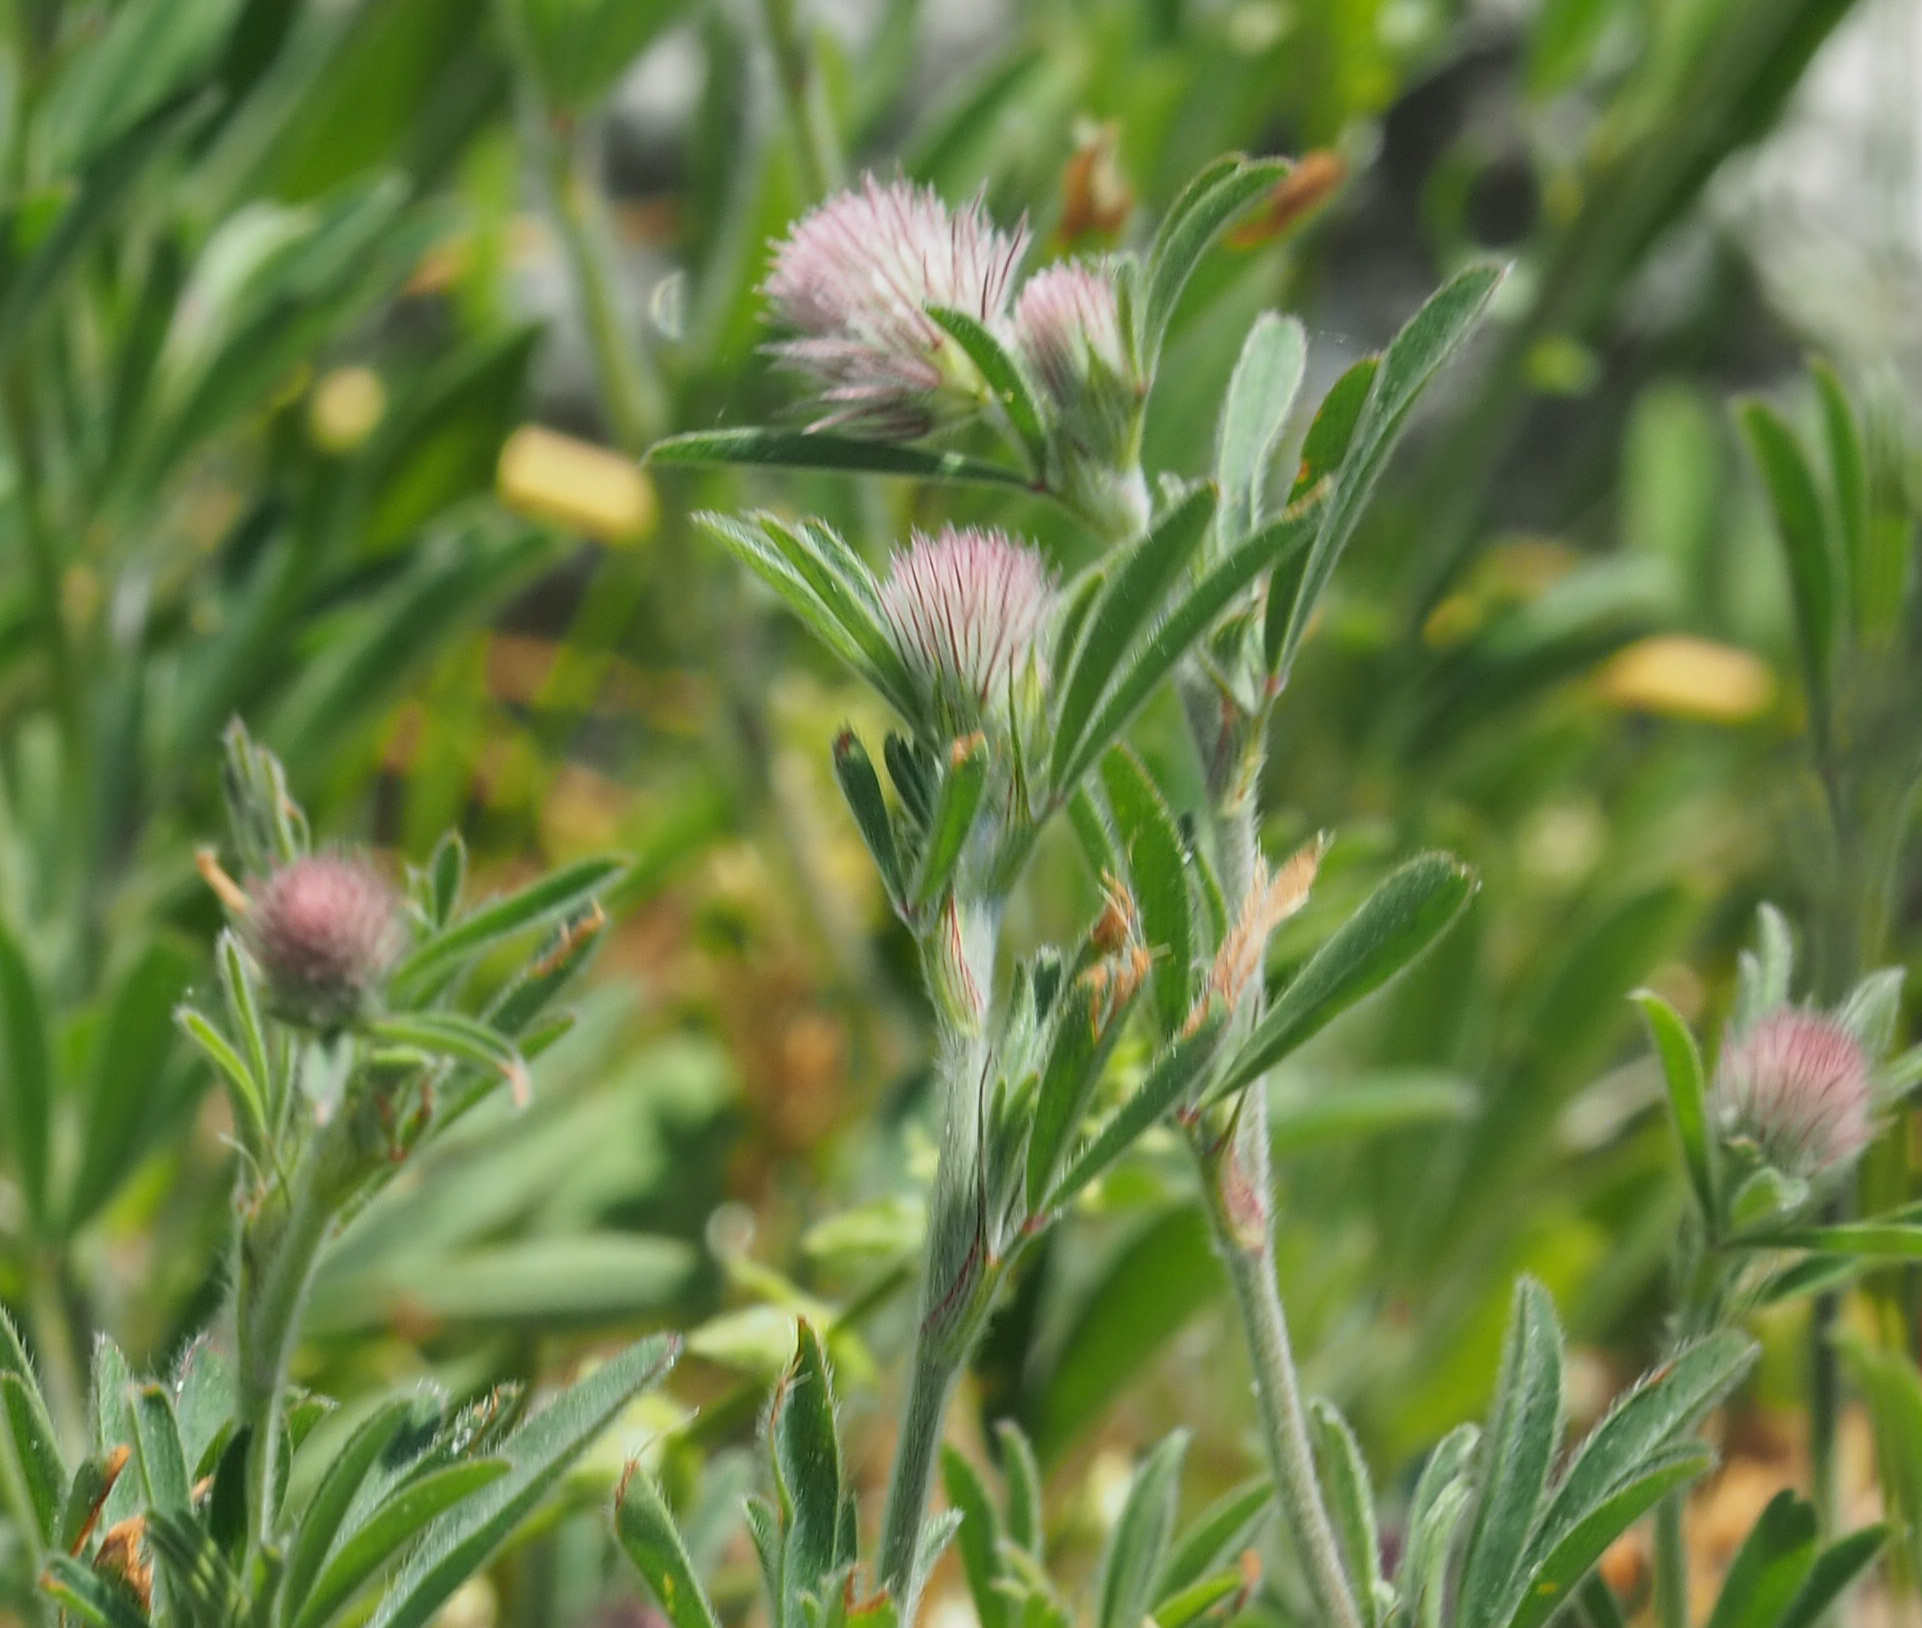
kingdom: Plantae
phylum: Tracheophyta
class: Magnoliopsida
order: Fabales
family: Fabaceae
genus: Trifolium
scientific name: Trifolium arvense
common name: Hare's-foot clover
